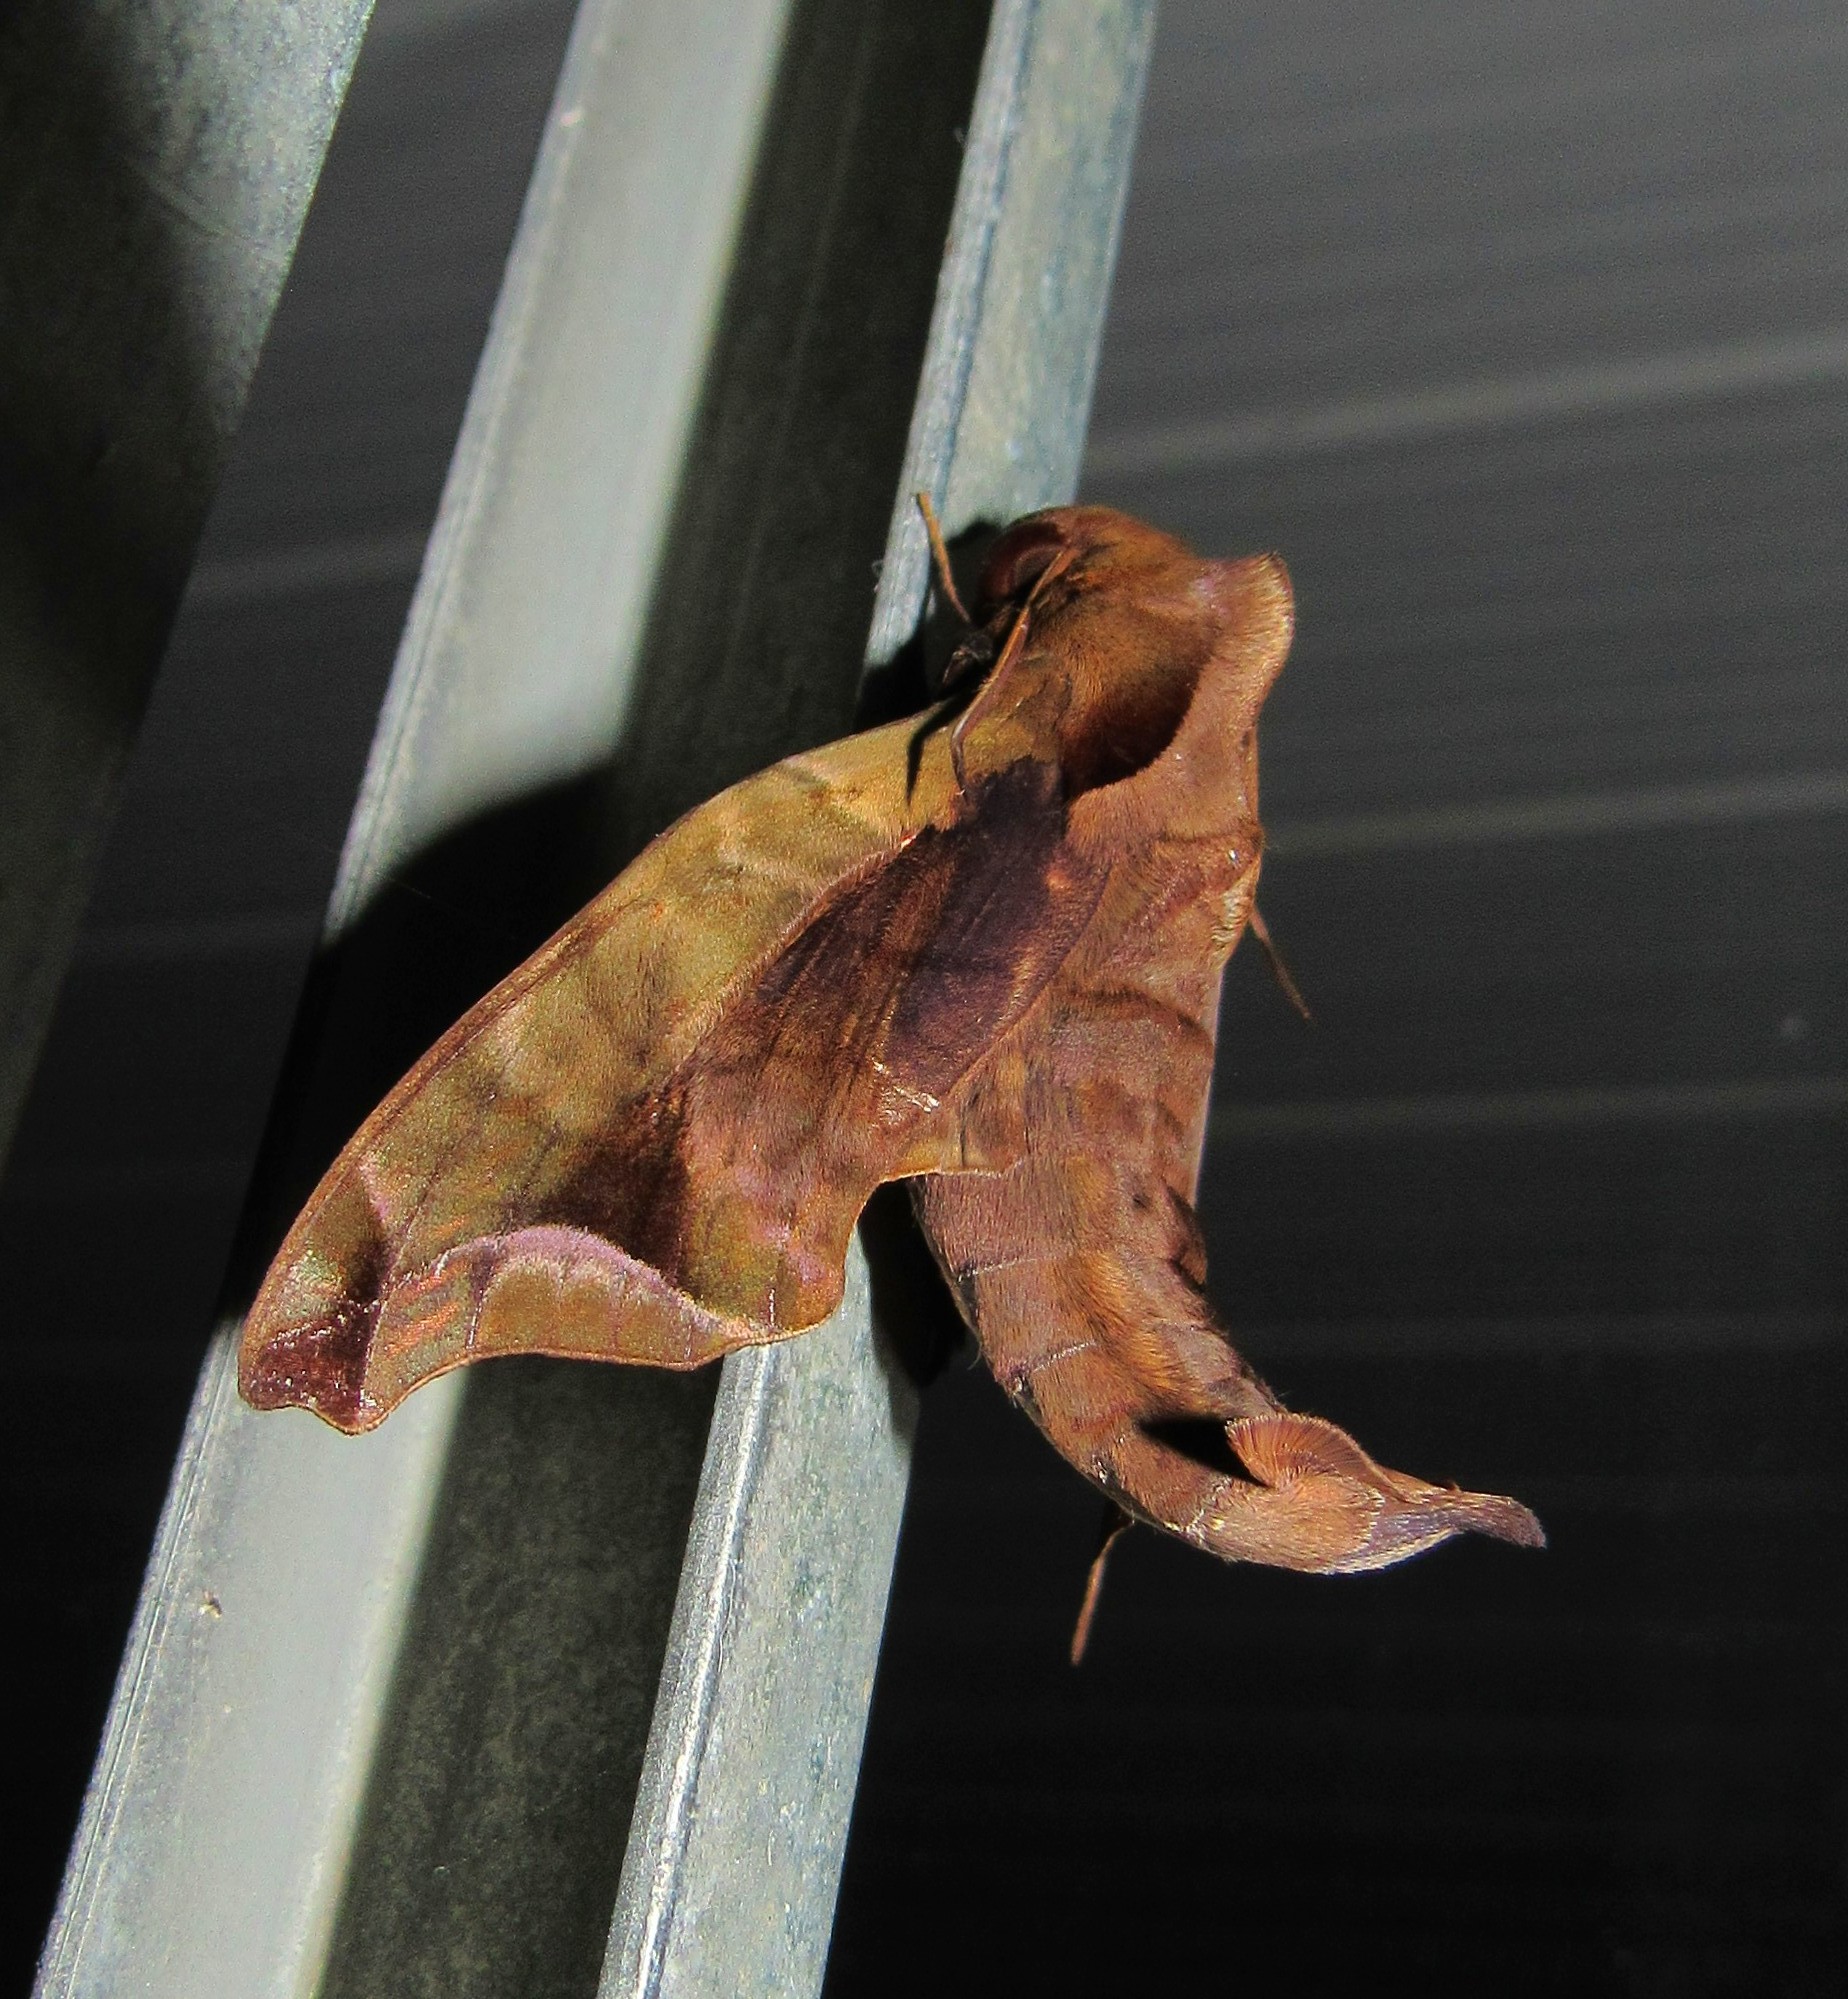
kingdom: Animalia
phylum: Arthropoda
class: Insecta
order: Lepidoptera
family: Sphingidae
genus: Enyo
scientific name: Enyo gorgon
